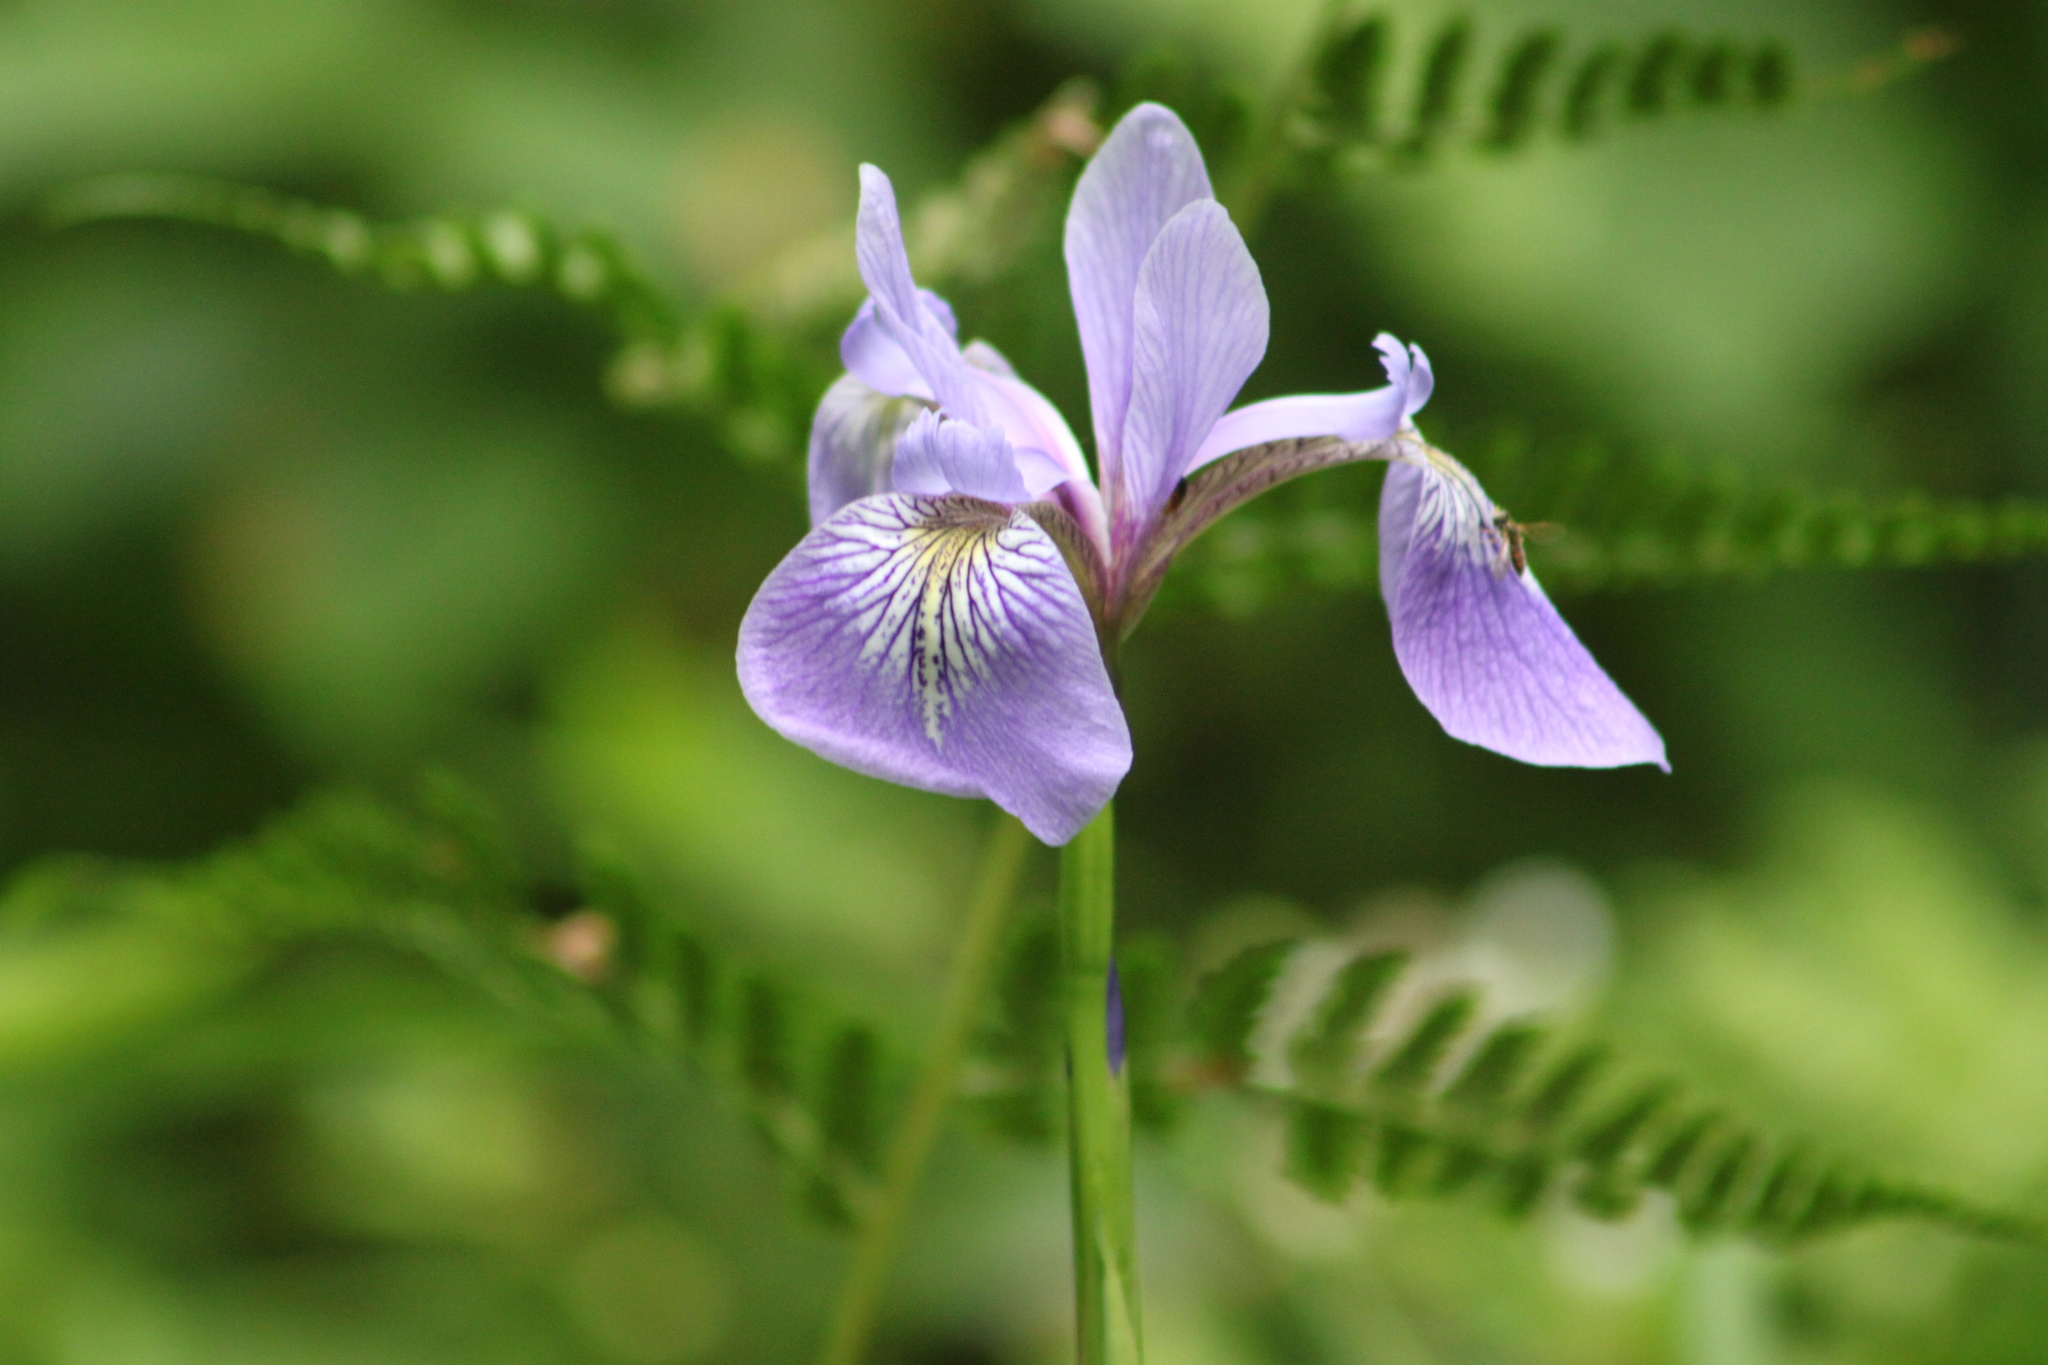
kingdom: Plantae
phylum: Tracheophyta
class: Liliopsida
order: Asparagales
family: Iridaceae
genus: Iris
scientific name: Iris versicolor
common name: Purple iris
